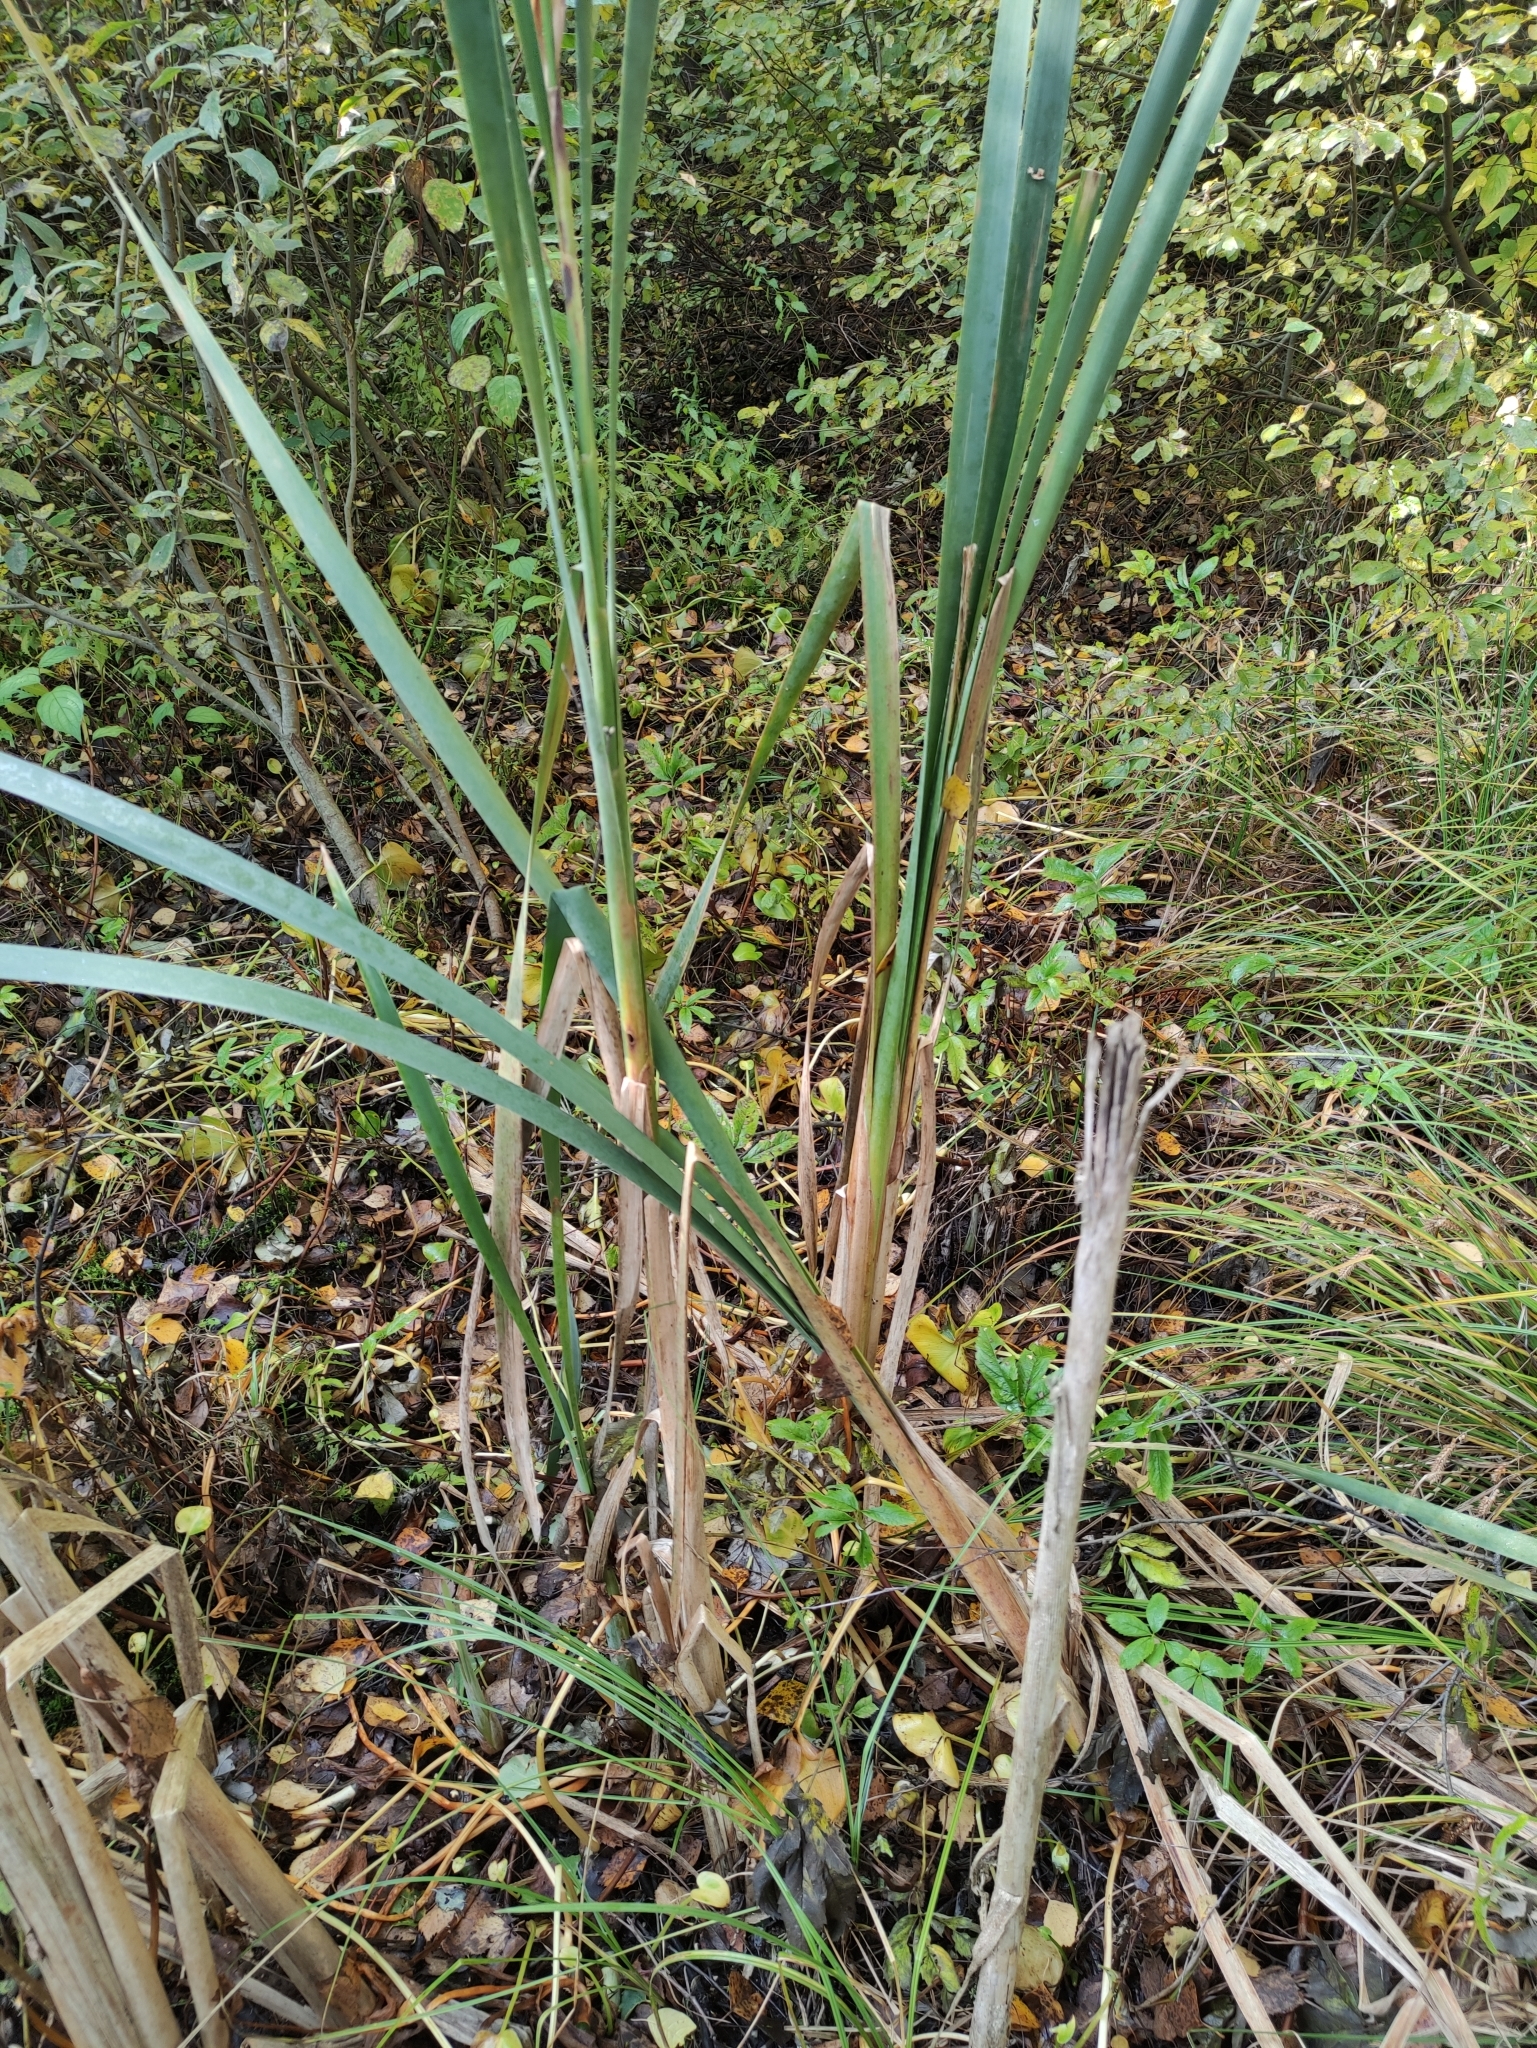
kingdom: Plantae
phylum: Tracheophyta
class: Liliopsida
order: Poales
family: Typhaceae
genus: Typha
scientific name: Typha latifolia
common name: Broadleaf cattail
